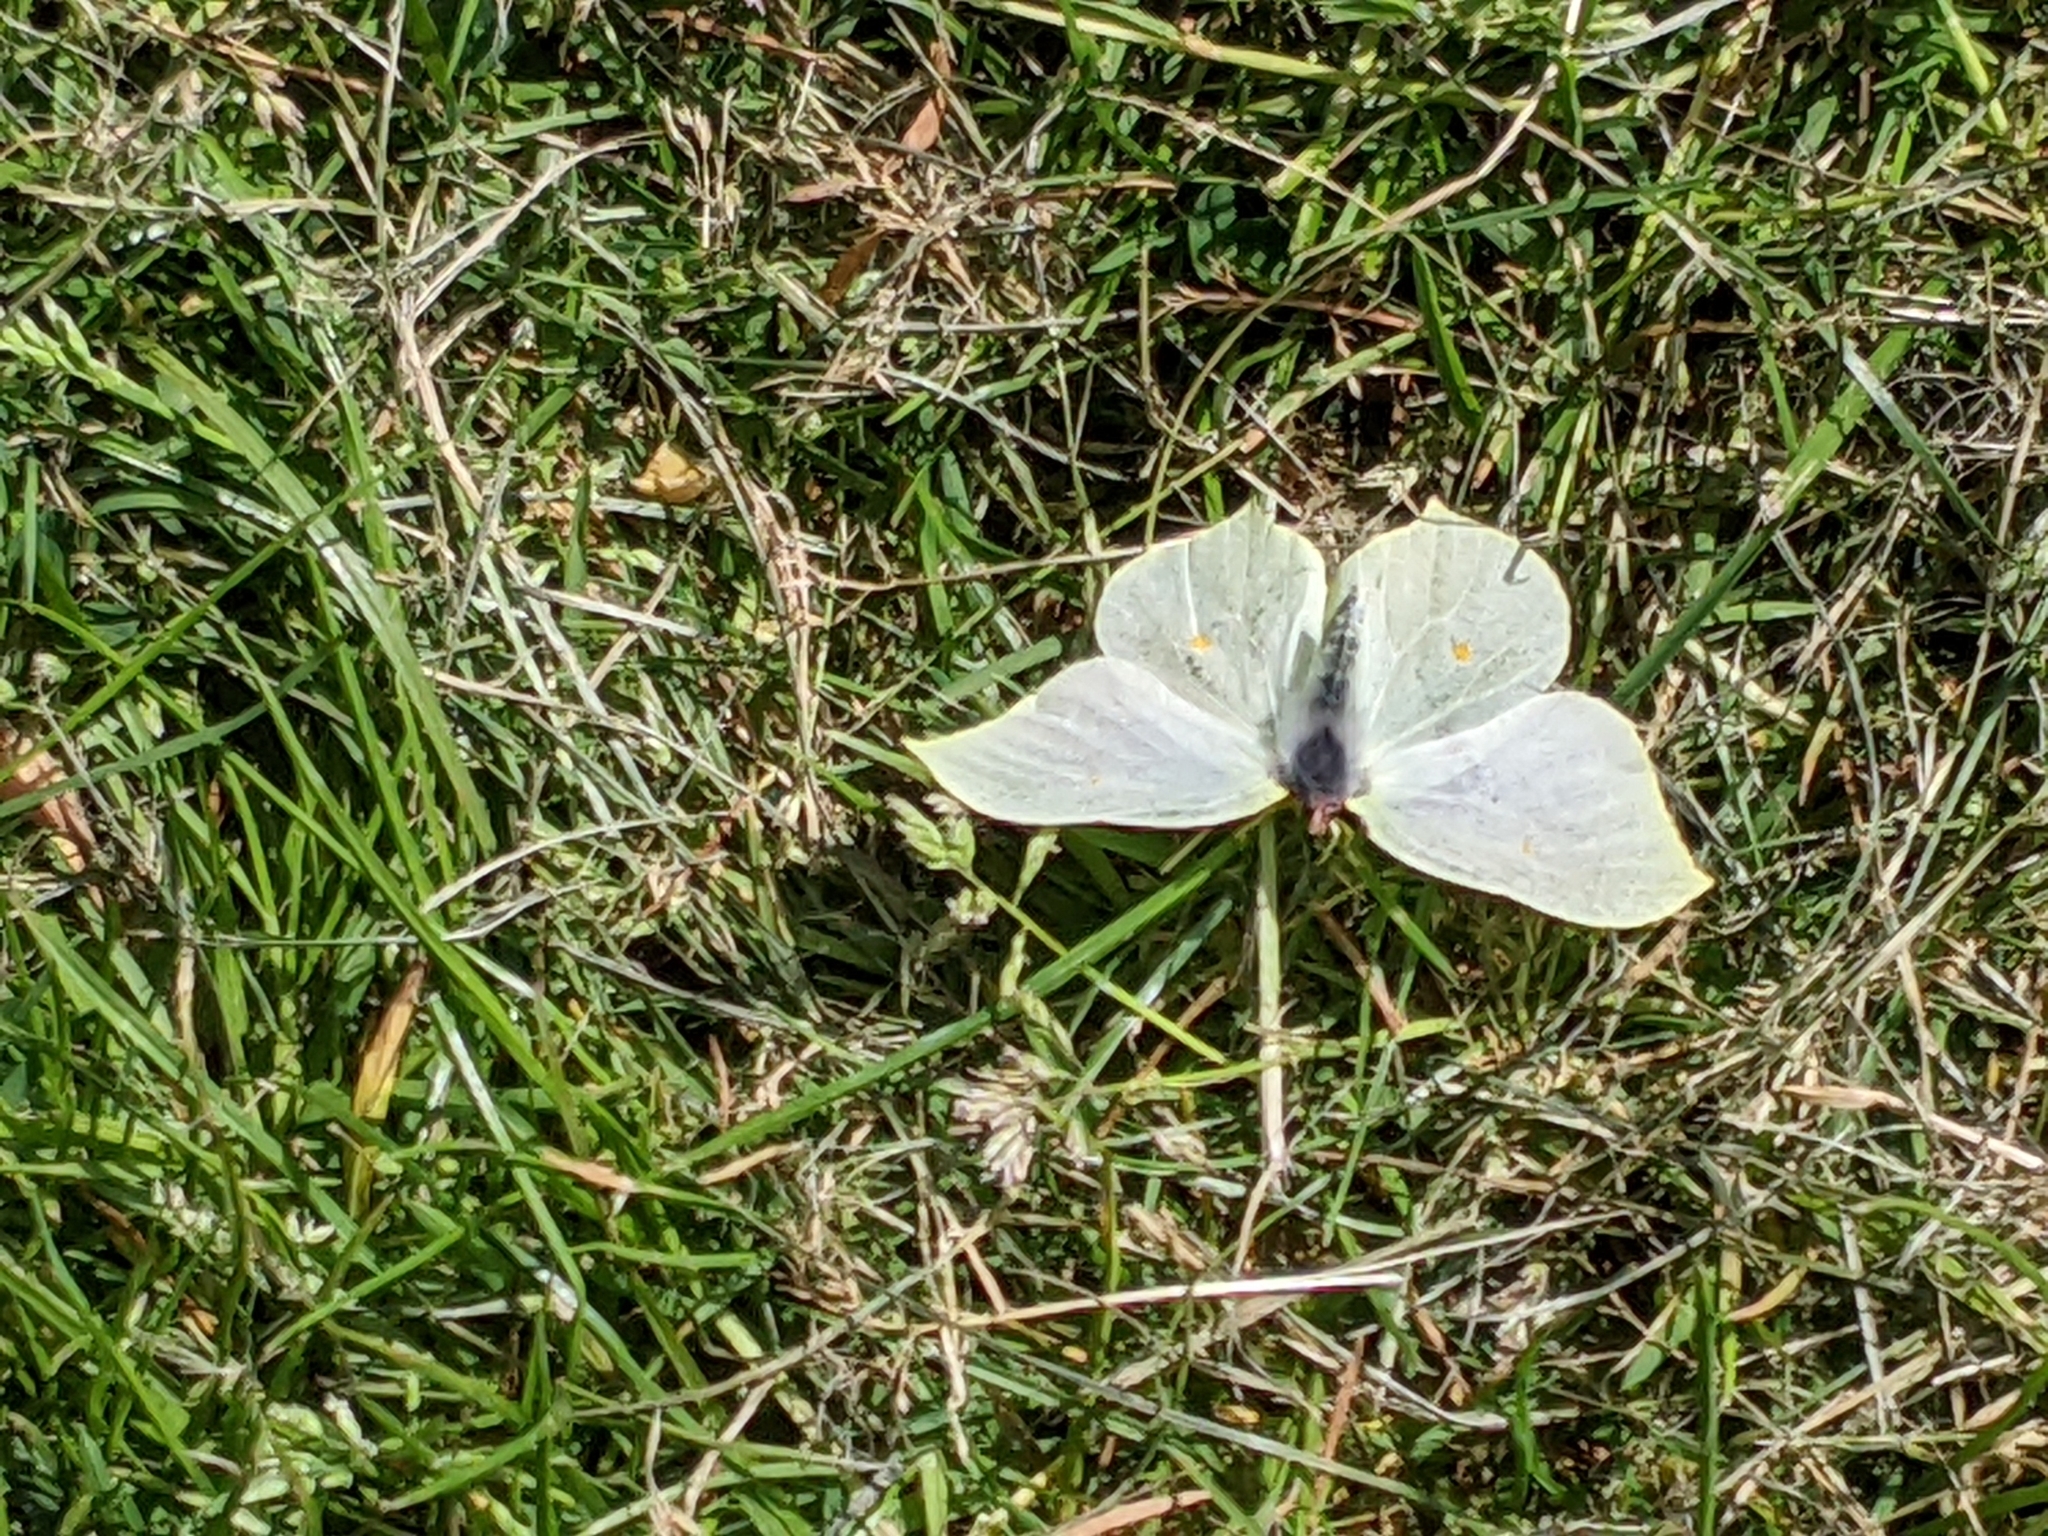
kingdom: Animalia
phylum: Arthropoda
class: Insecta
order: Lepidoptera
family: Pieridae
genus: Gonepteryx
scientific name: Gonepteryx rhamni
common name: Brimstone
